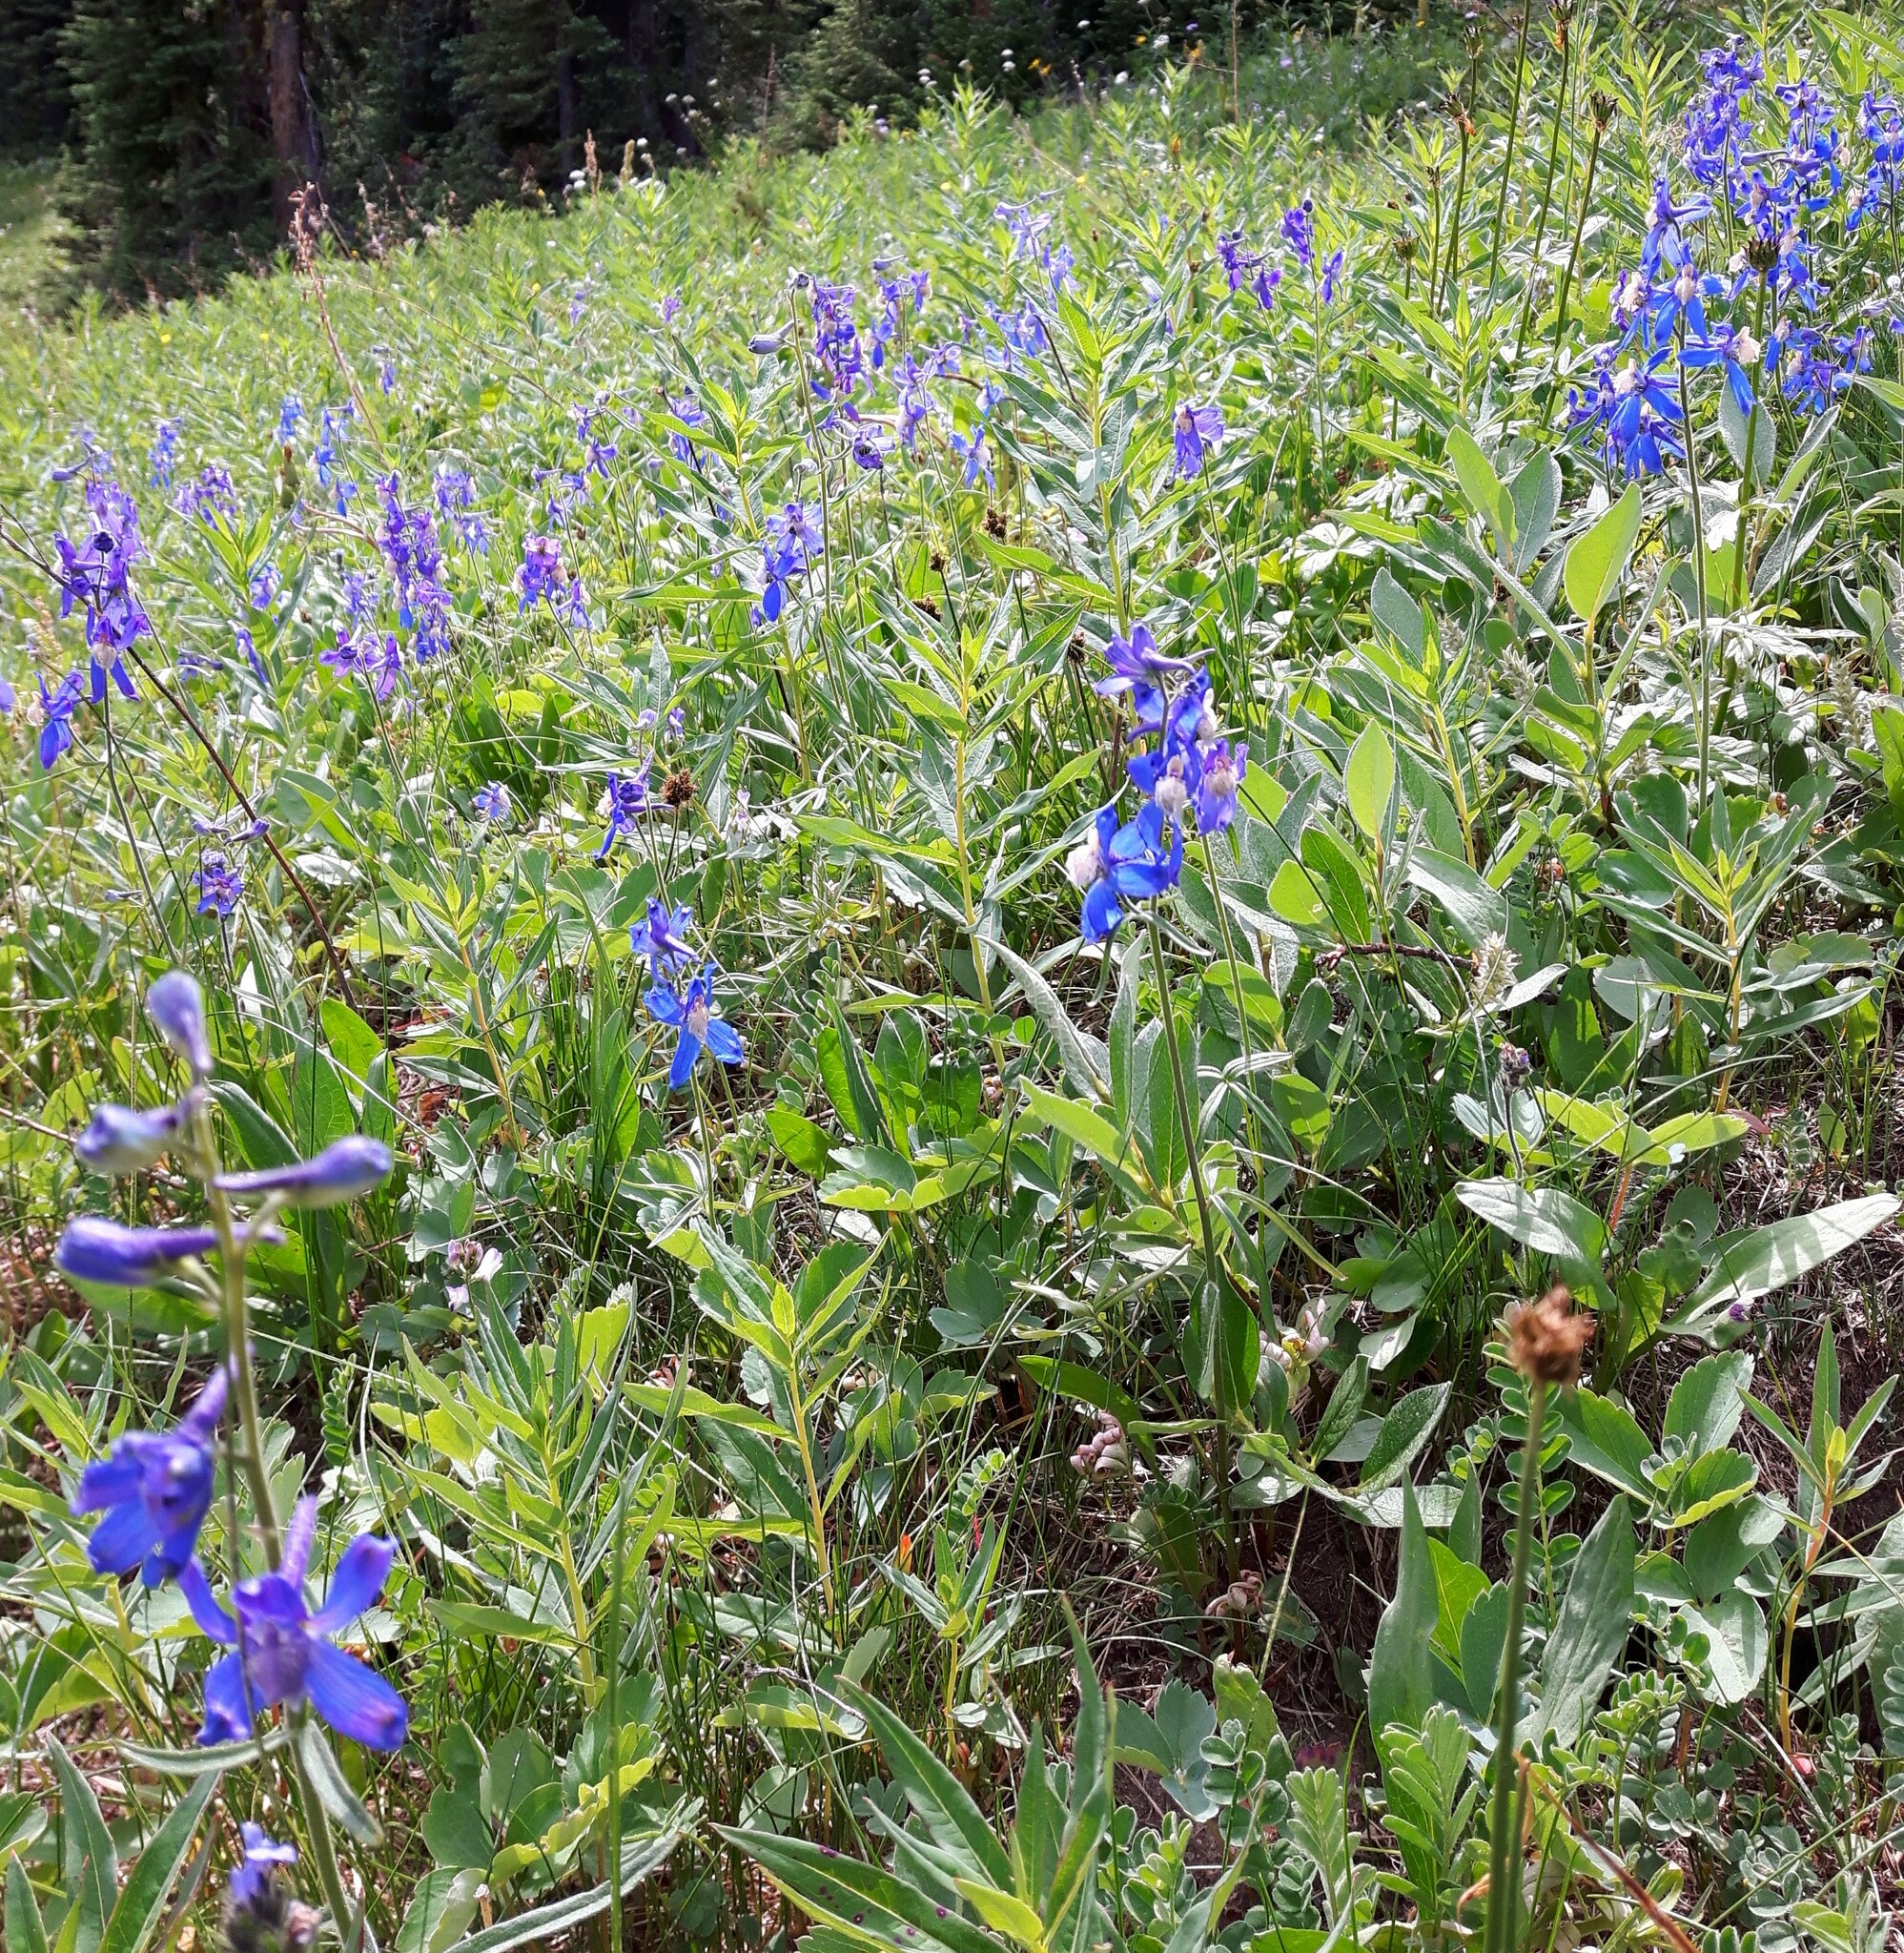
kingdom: Plantae
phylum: Tracheophyta
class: Magnoliopsida
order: Ranunculales
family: Ranunculaceae
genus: Delphinium
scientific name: Delphinium sutherlandii
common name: Sutherland's larkspur
